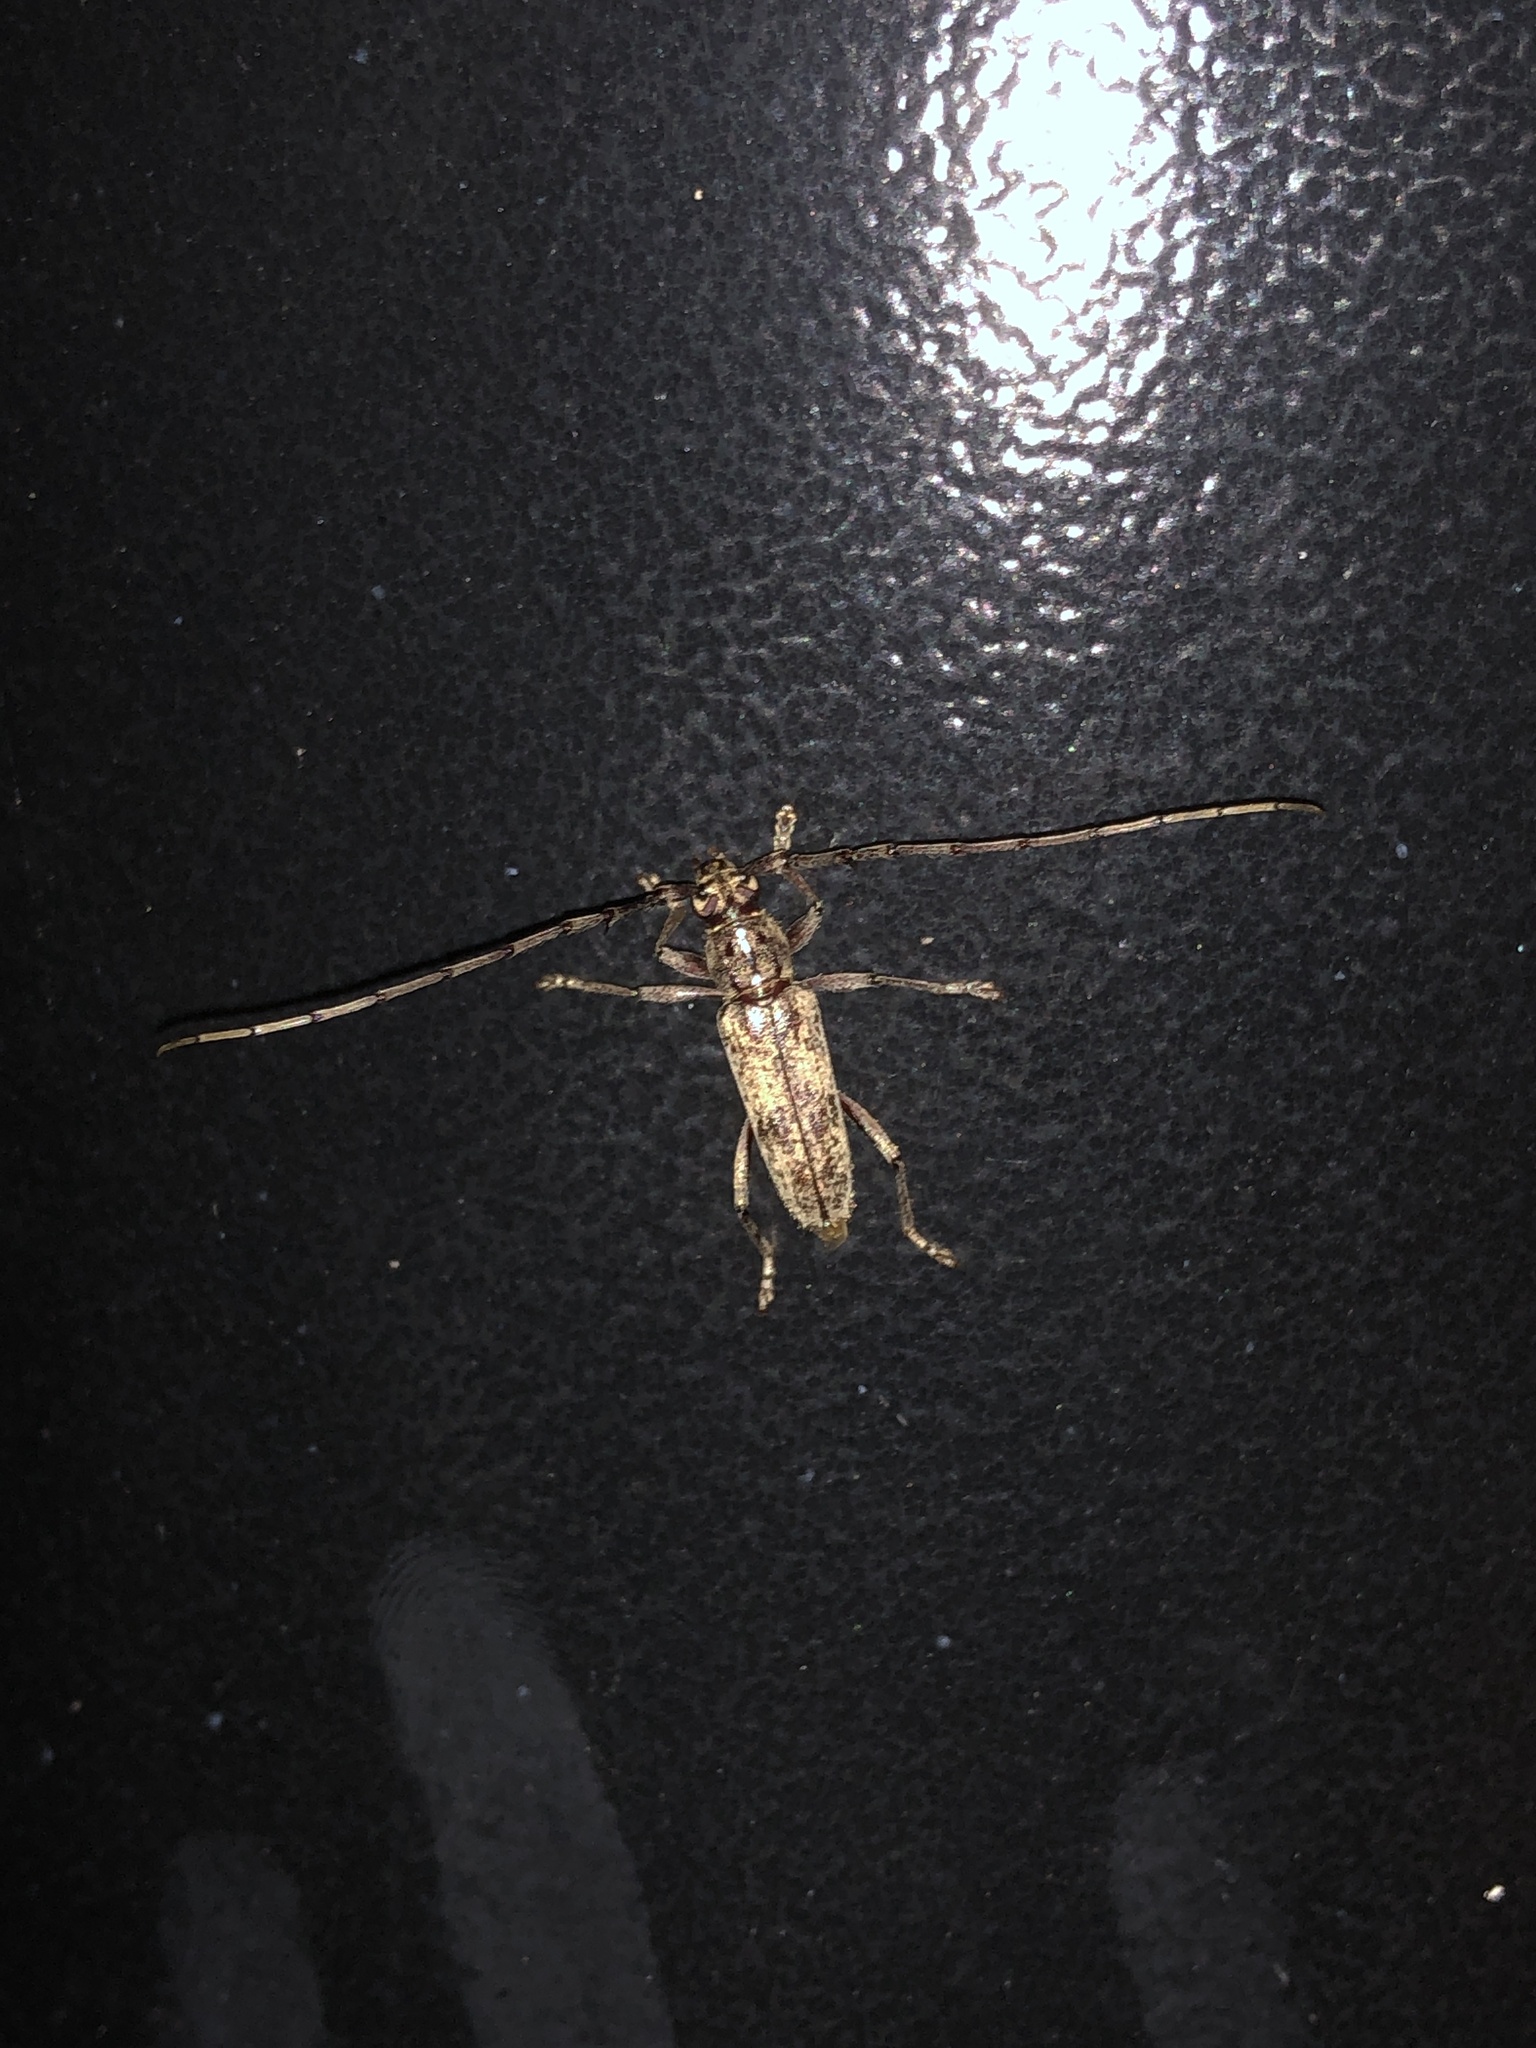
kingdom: Animalia
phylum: Arthropoda
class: Insecta
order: Coleoptera
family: Cerambycidae
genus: Elaphidion
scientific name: Elaphidion mucronatum
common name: Spined oak borer
